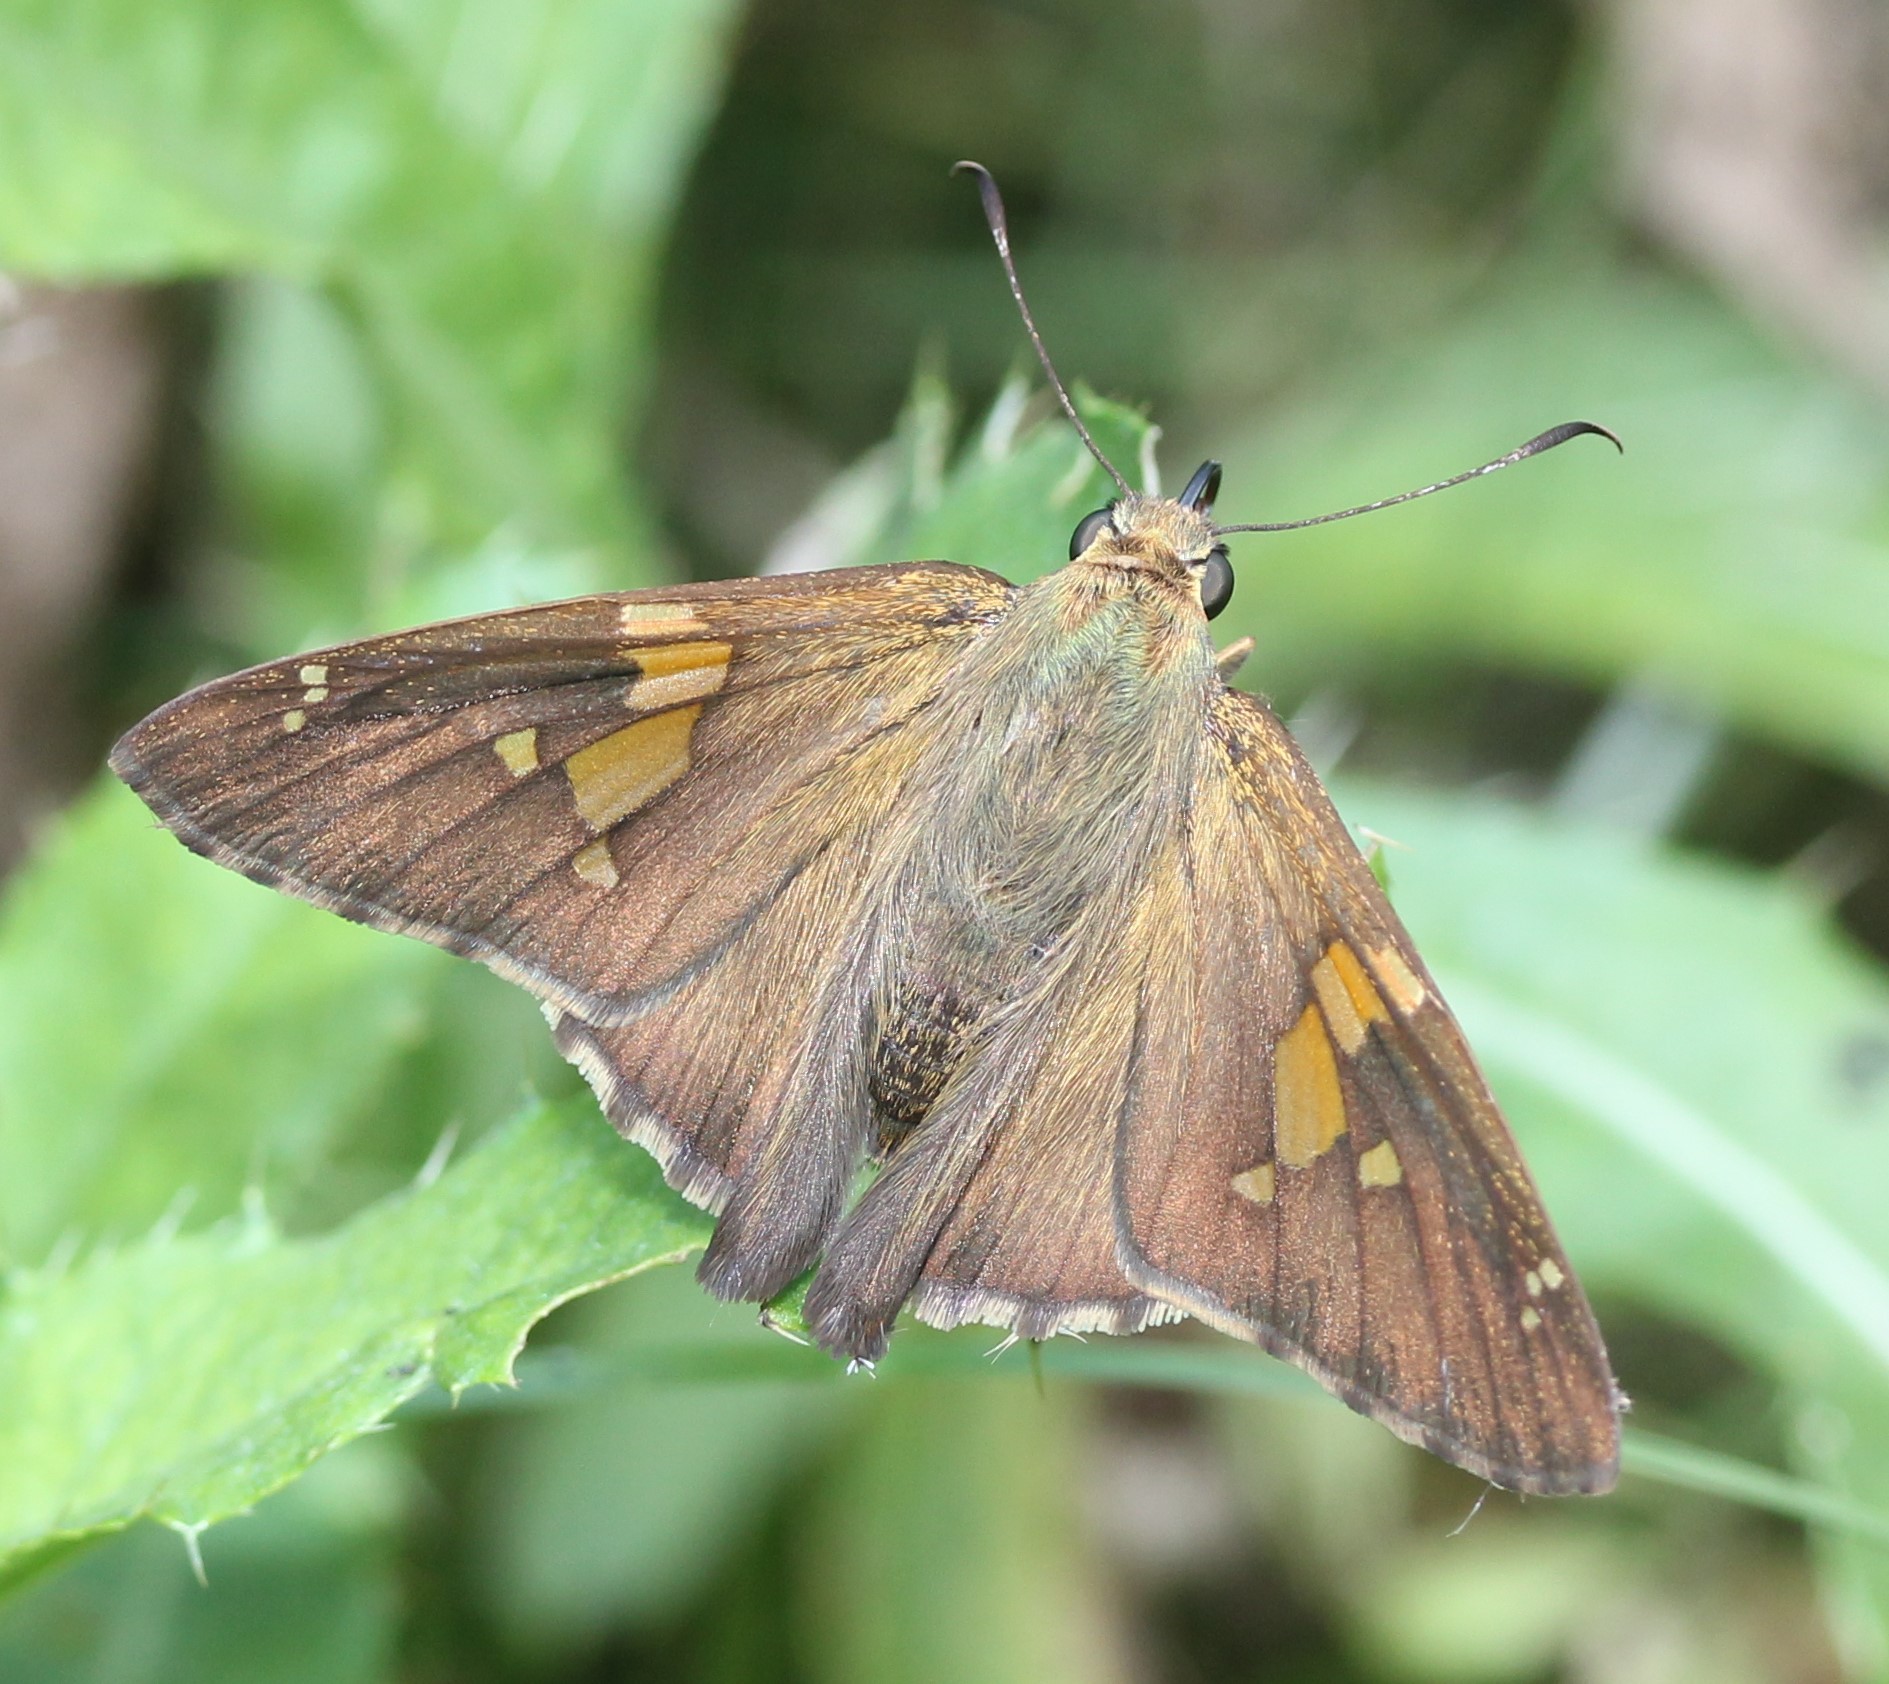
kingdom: Animalia
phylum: Arthropoda
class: Insecta
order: Lepidoptera
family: Hesperiidae
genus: Epargyreus
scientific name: Epargyreus clarus
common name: Silver-spotted skipper
